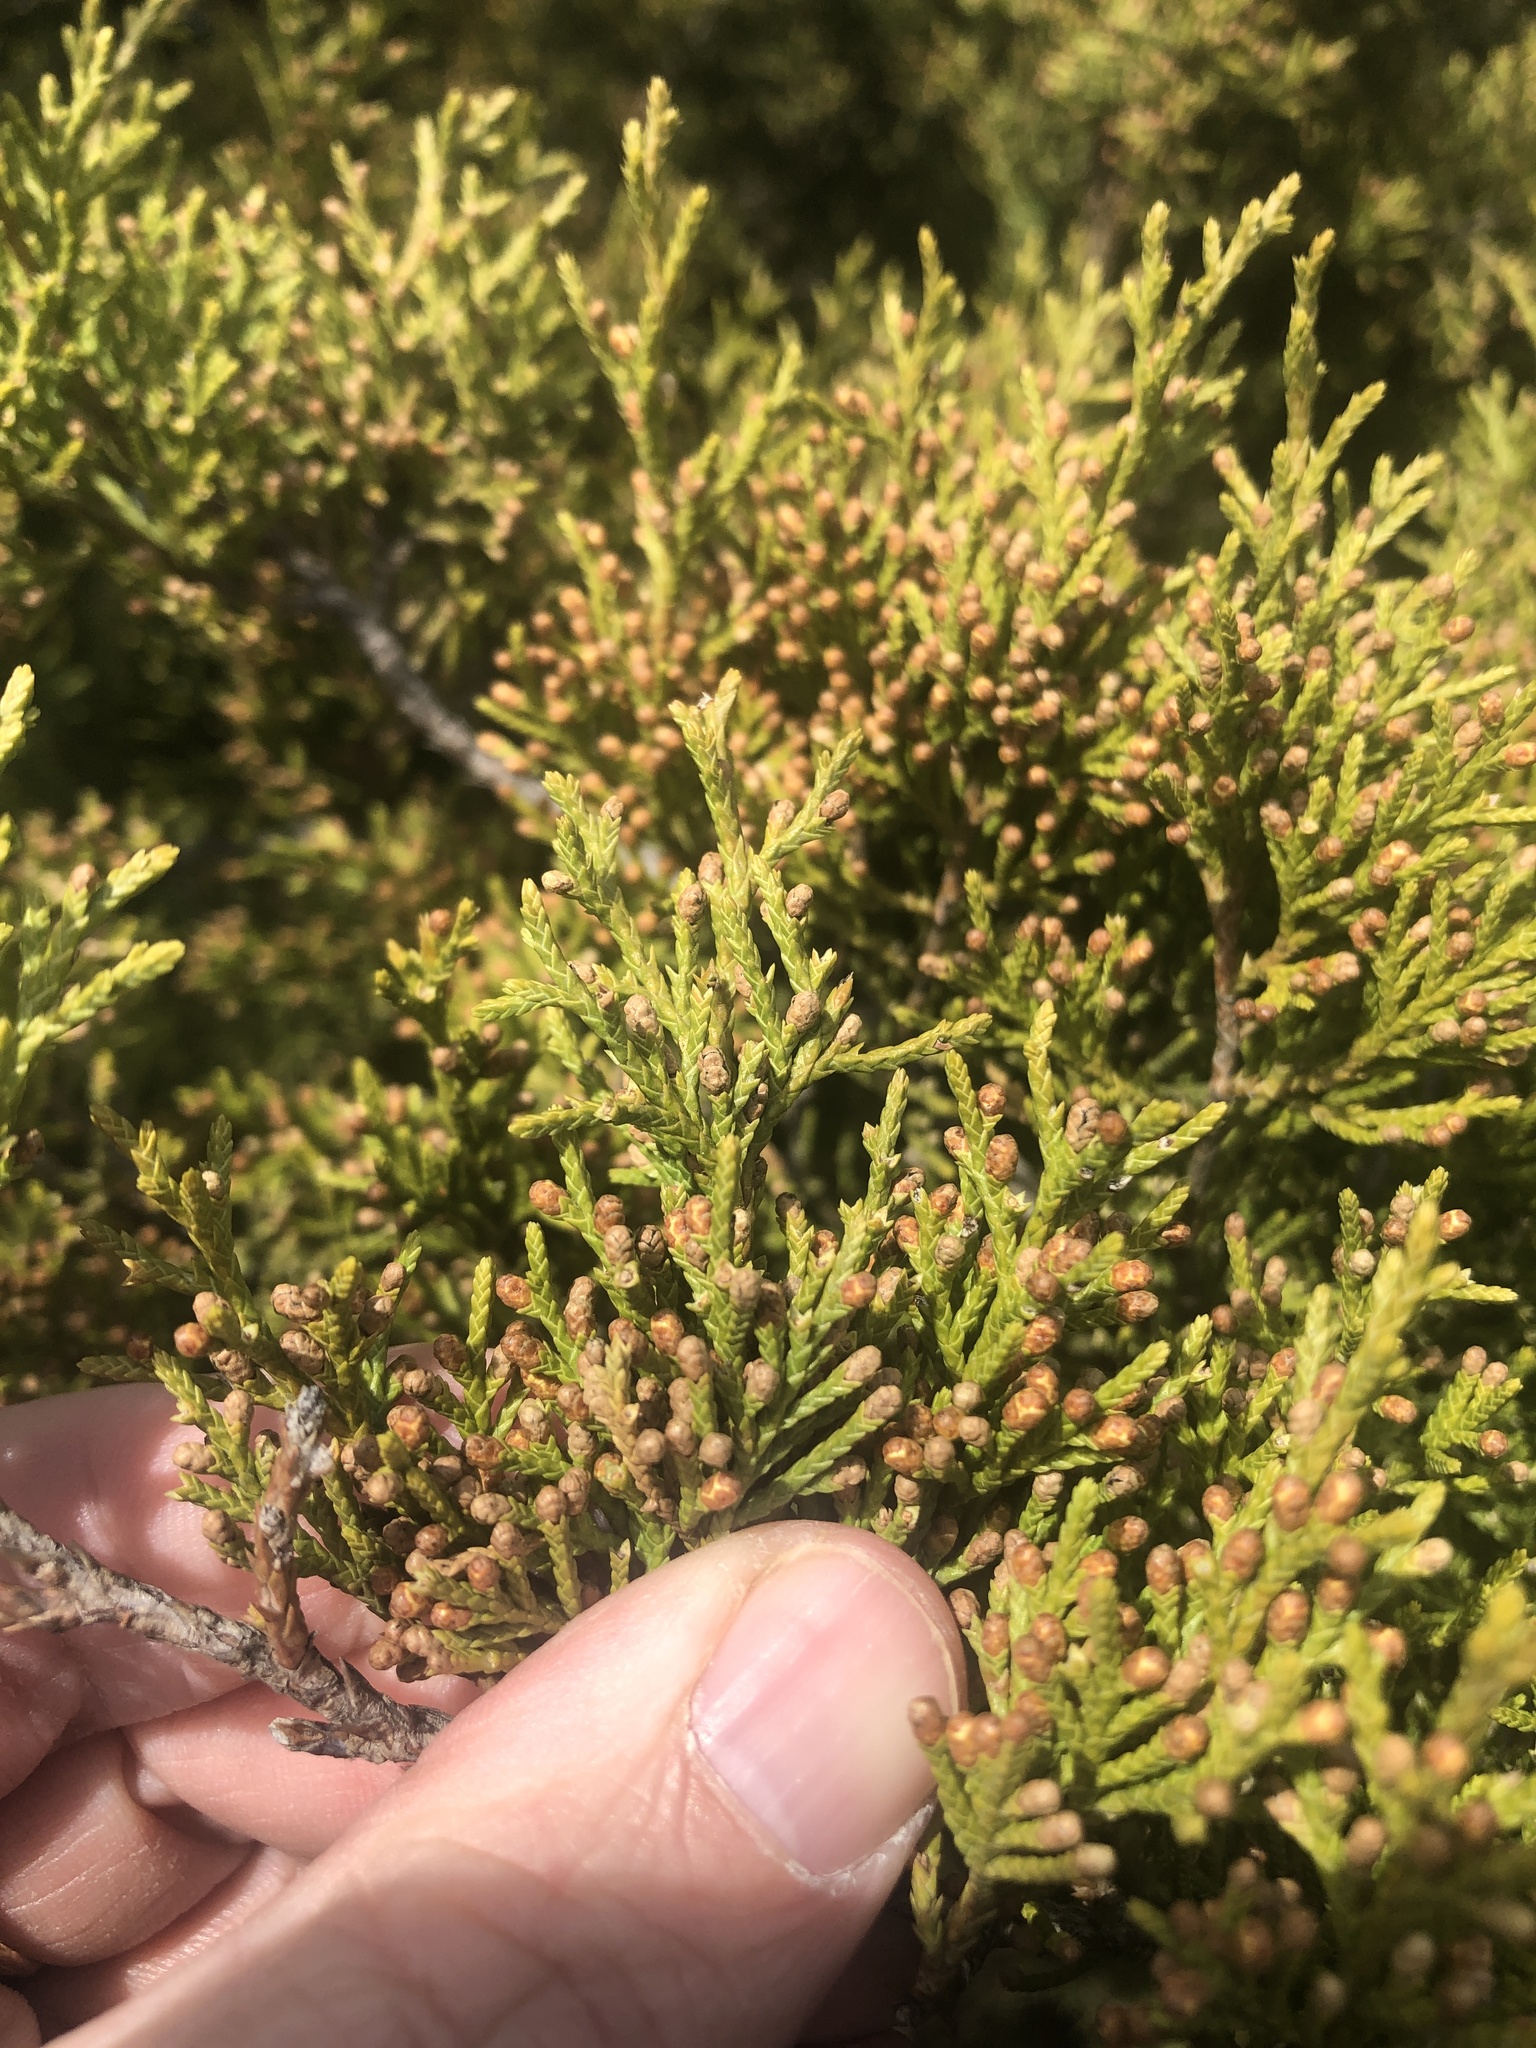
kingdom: Plantae
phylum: Tracheophyta
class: Pinopsida
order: Pinales
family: Cupressaceae
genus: Juniperus
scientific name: Juniperus virginiana
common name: Red juniper
